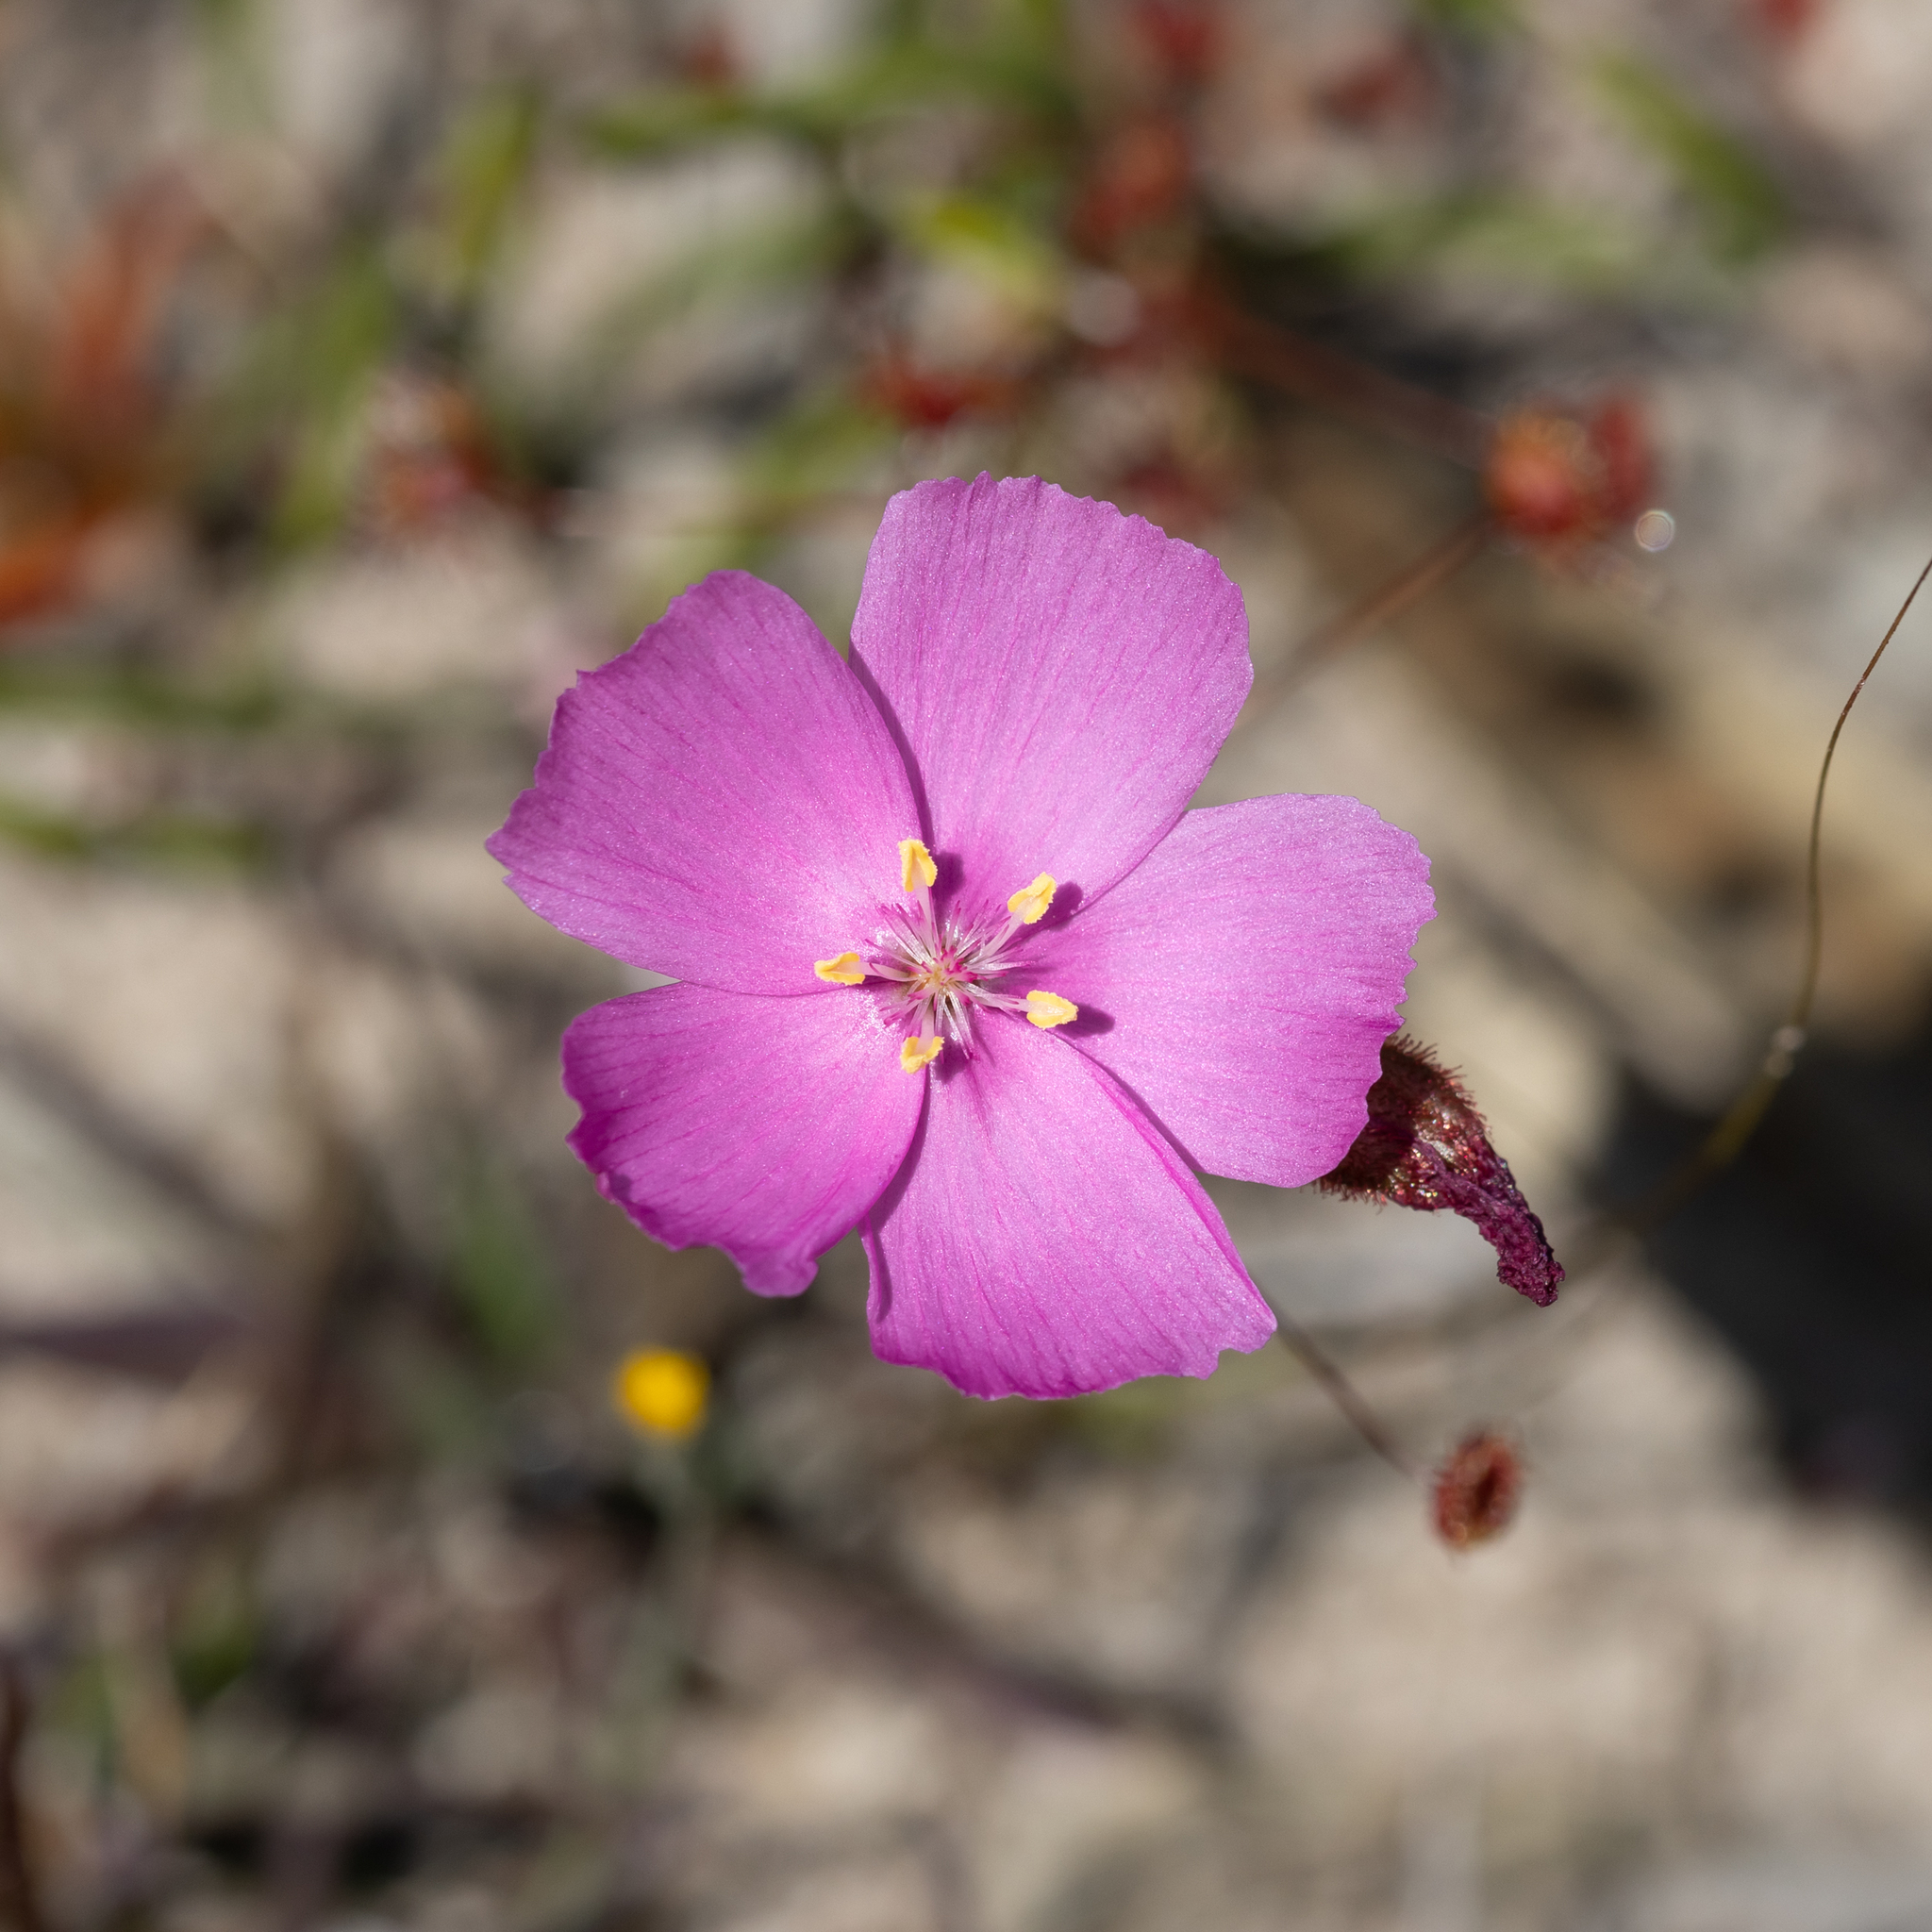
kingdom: Plantae
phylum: Tracheophyta
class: Magnoliopsida
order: Caryophyllales
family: Droseraceae
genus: Drosera
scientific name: Drosera
